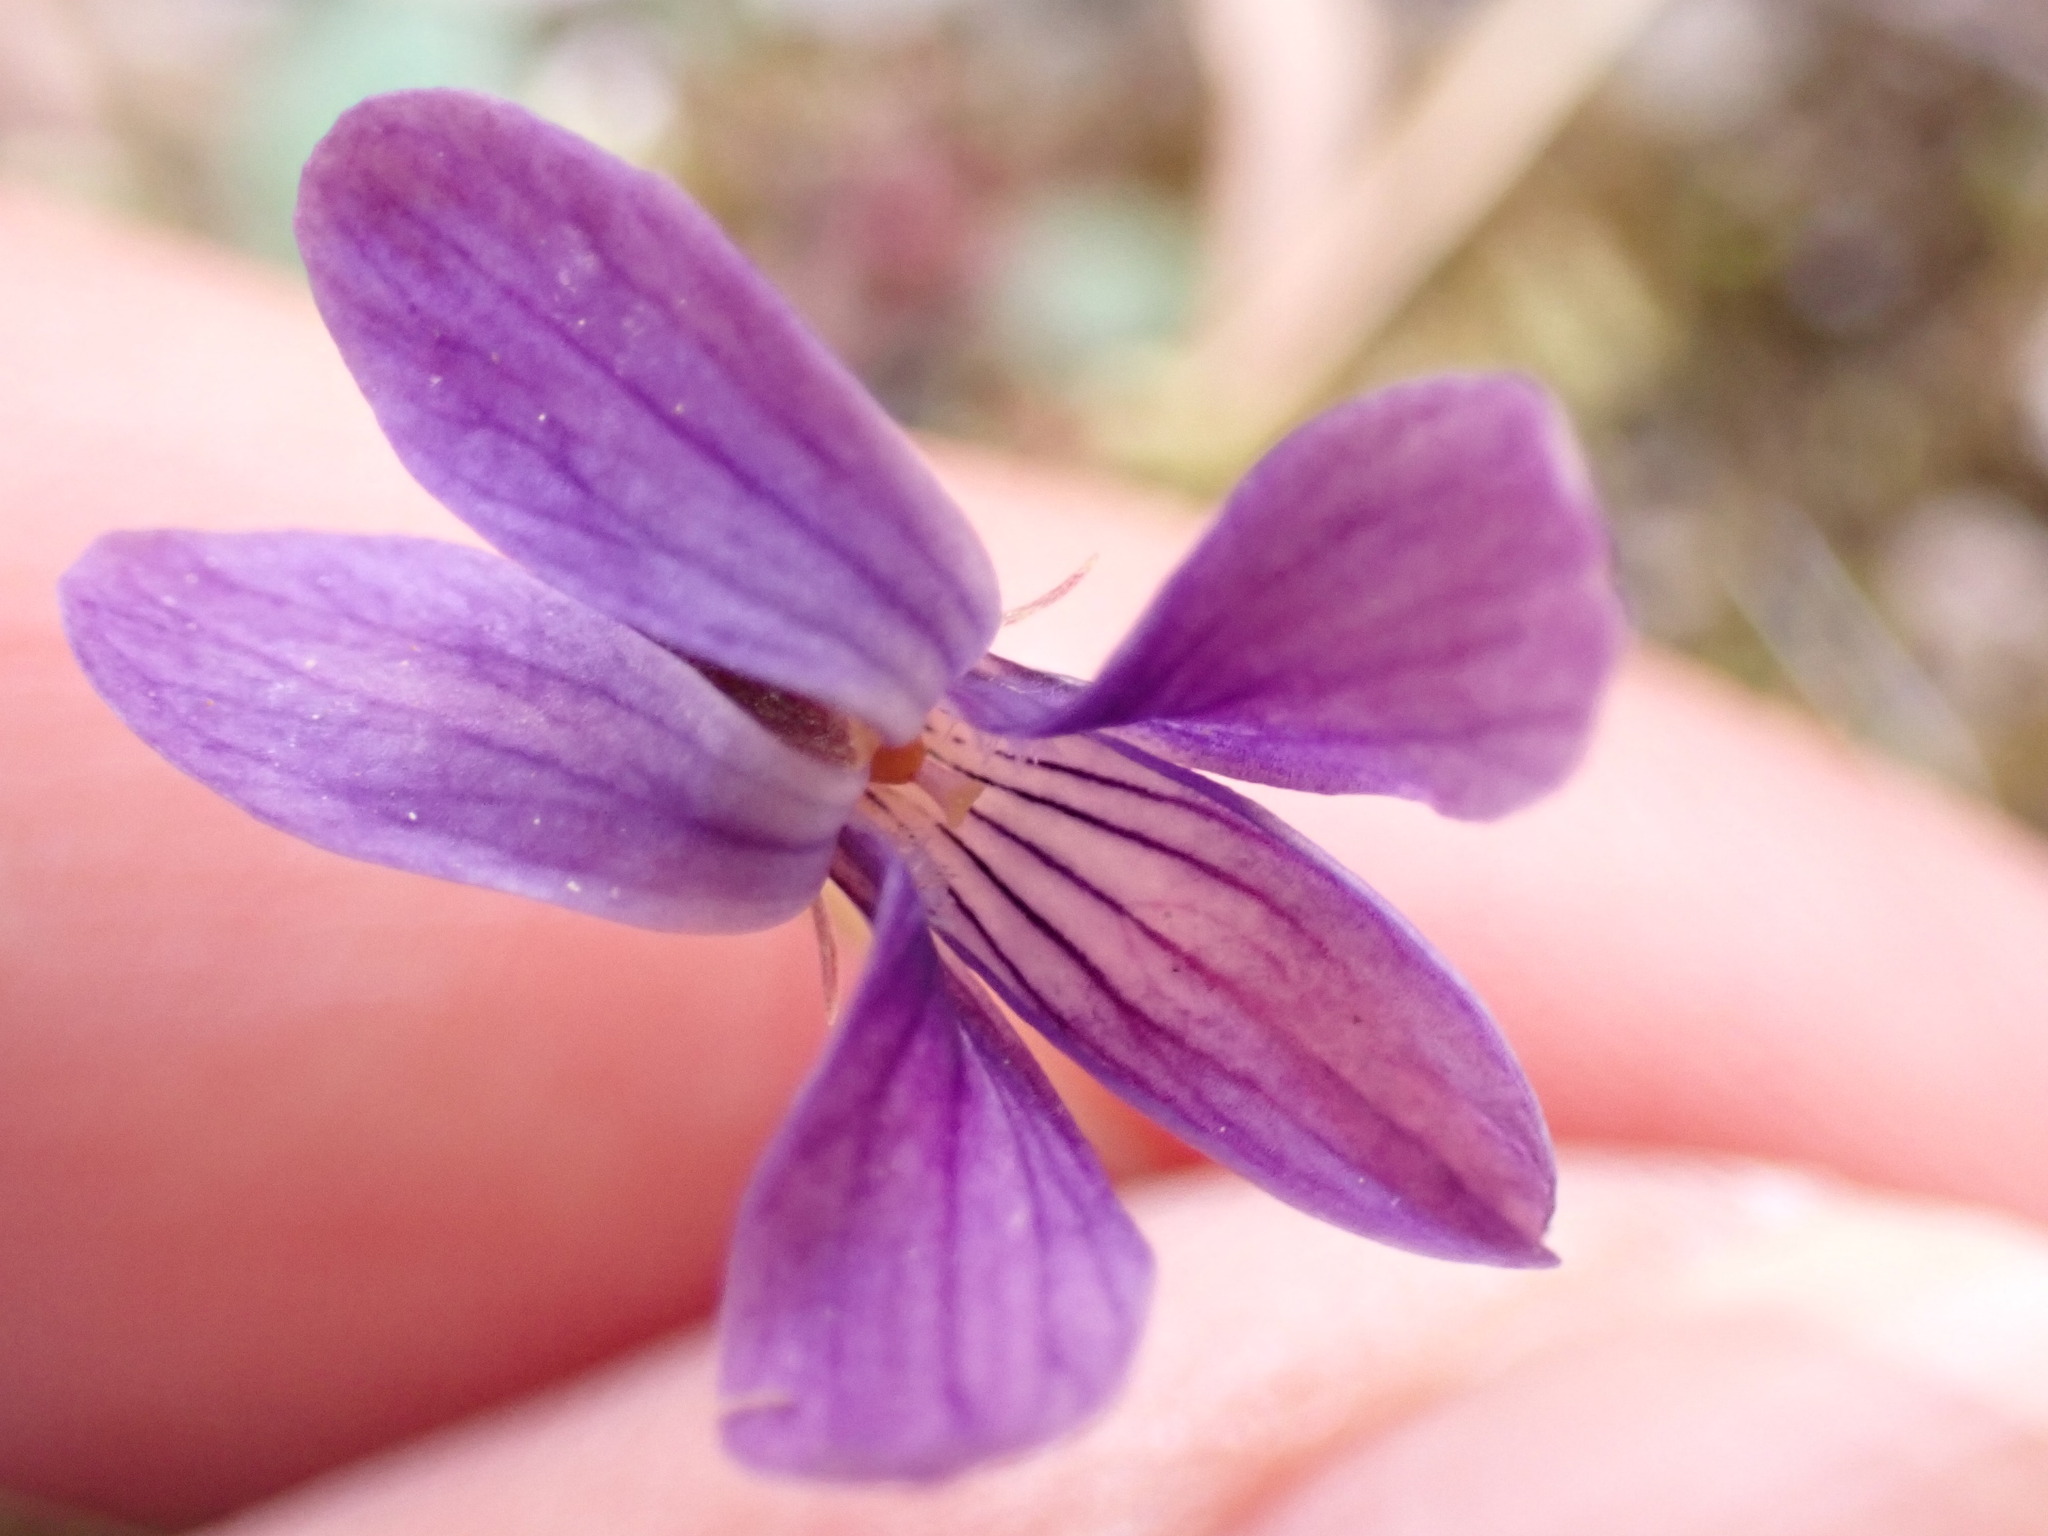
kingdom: Plantae
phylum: Tracheophyta
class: Magnoliopsida
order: Malpighiales
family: Violaceae
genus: Viola
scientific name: Viola japonica
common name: Japanese violet
